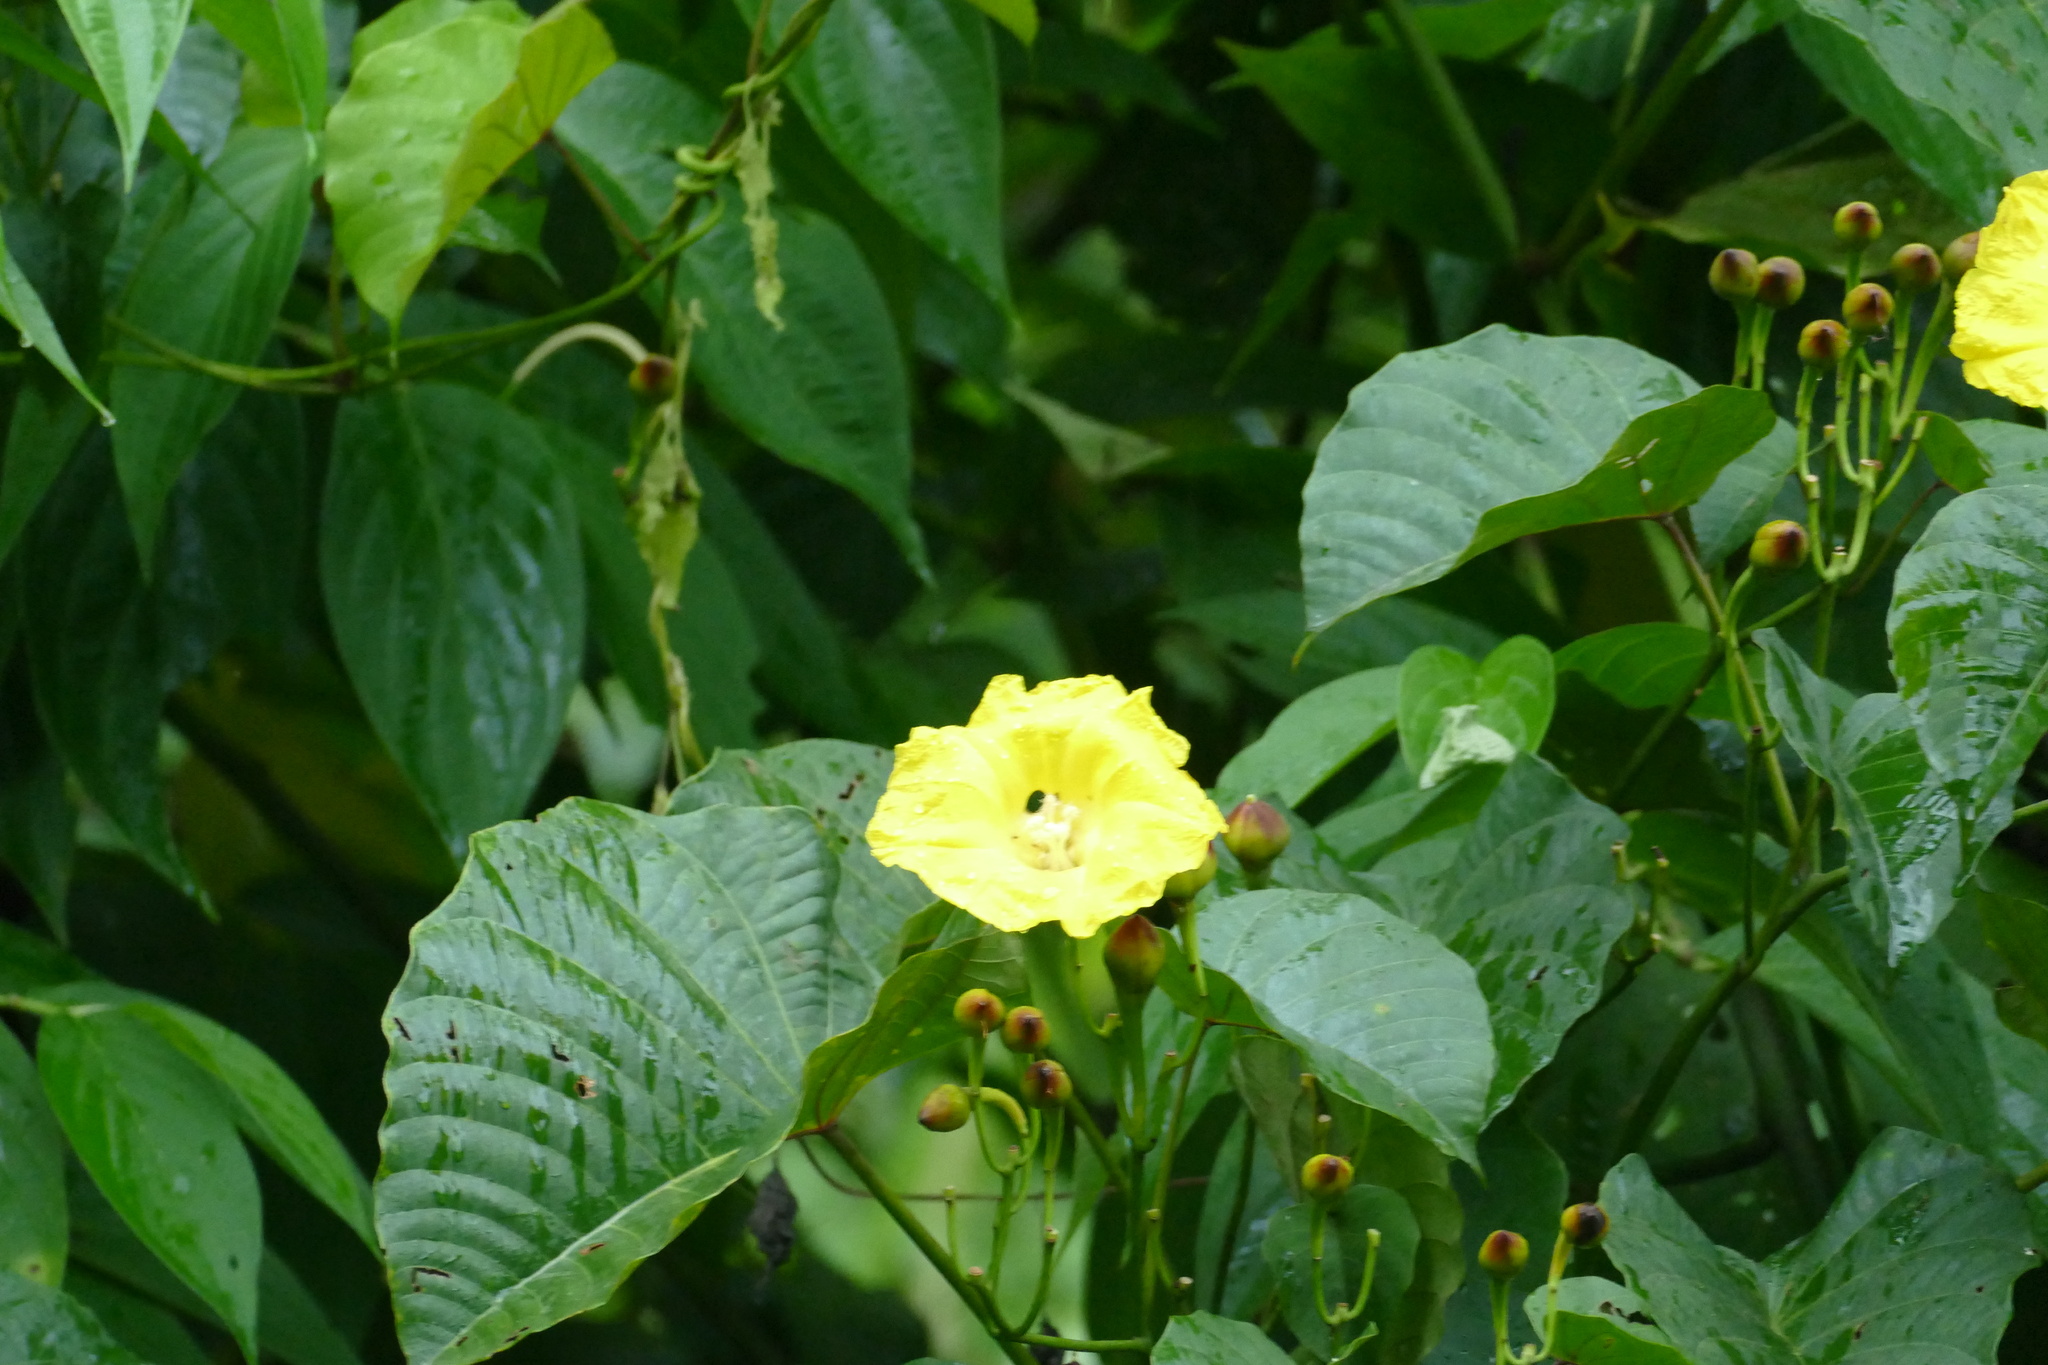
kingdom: Plantae
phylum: Tracheophyta
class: Magnoliopsida
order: Solanales
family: Convolvulaceae
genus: Decalobanthus
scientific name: Decalobanthus peltatus
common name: Merremia
